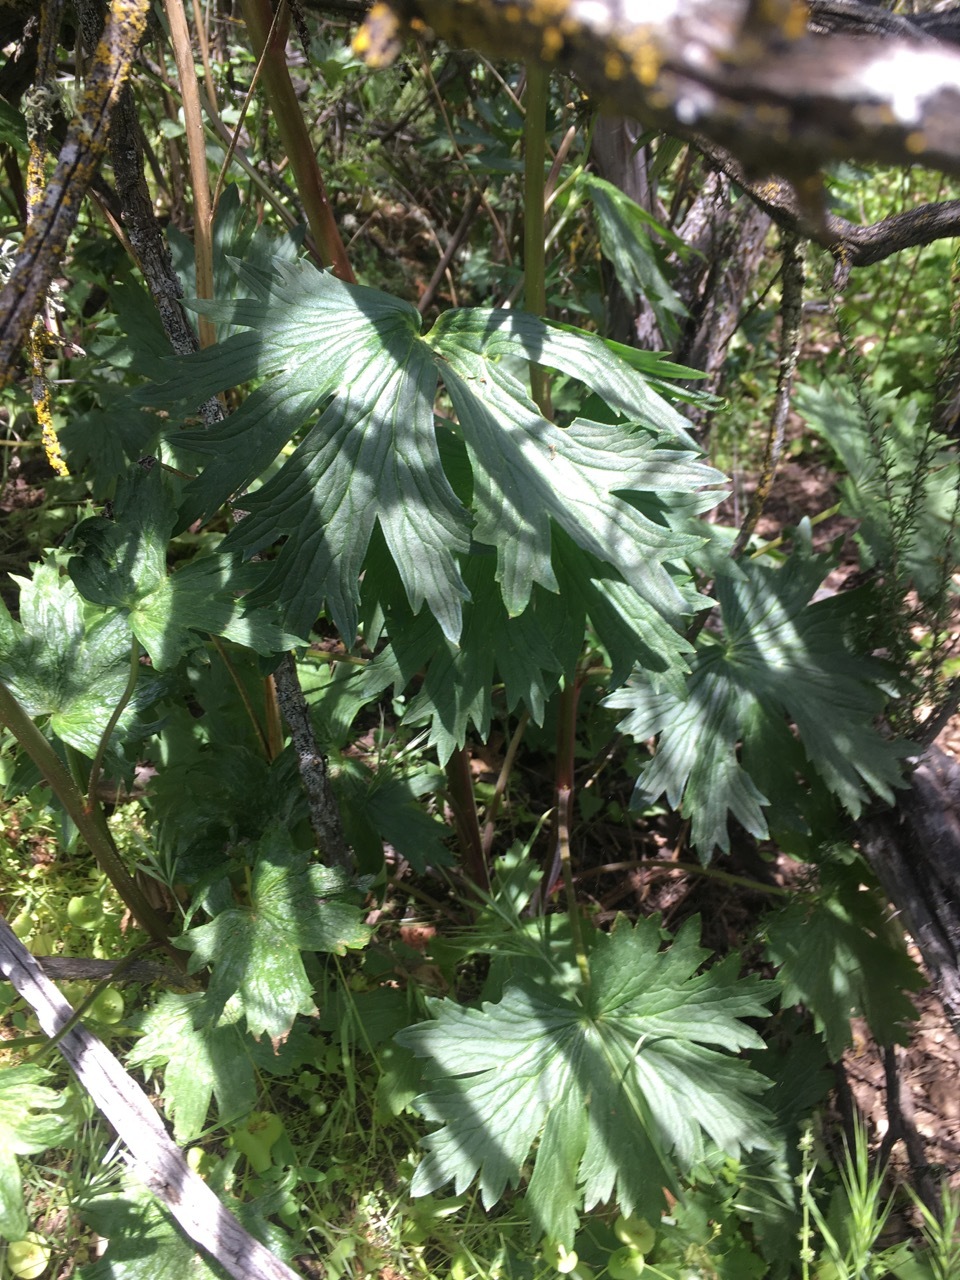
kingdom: Plantae
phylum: Tracheophyta
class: Magnoliopsida
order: Ranunculales
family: Ranunculaceae
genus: Delphinium
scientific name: Delphinium californicum
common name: California larkspur
